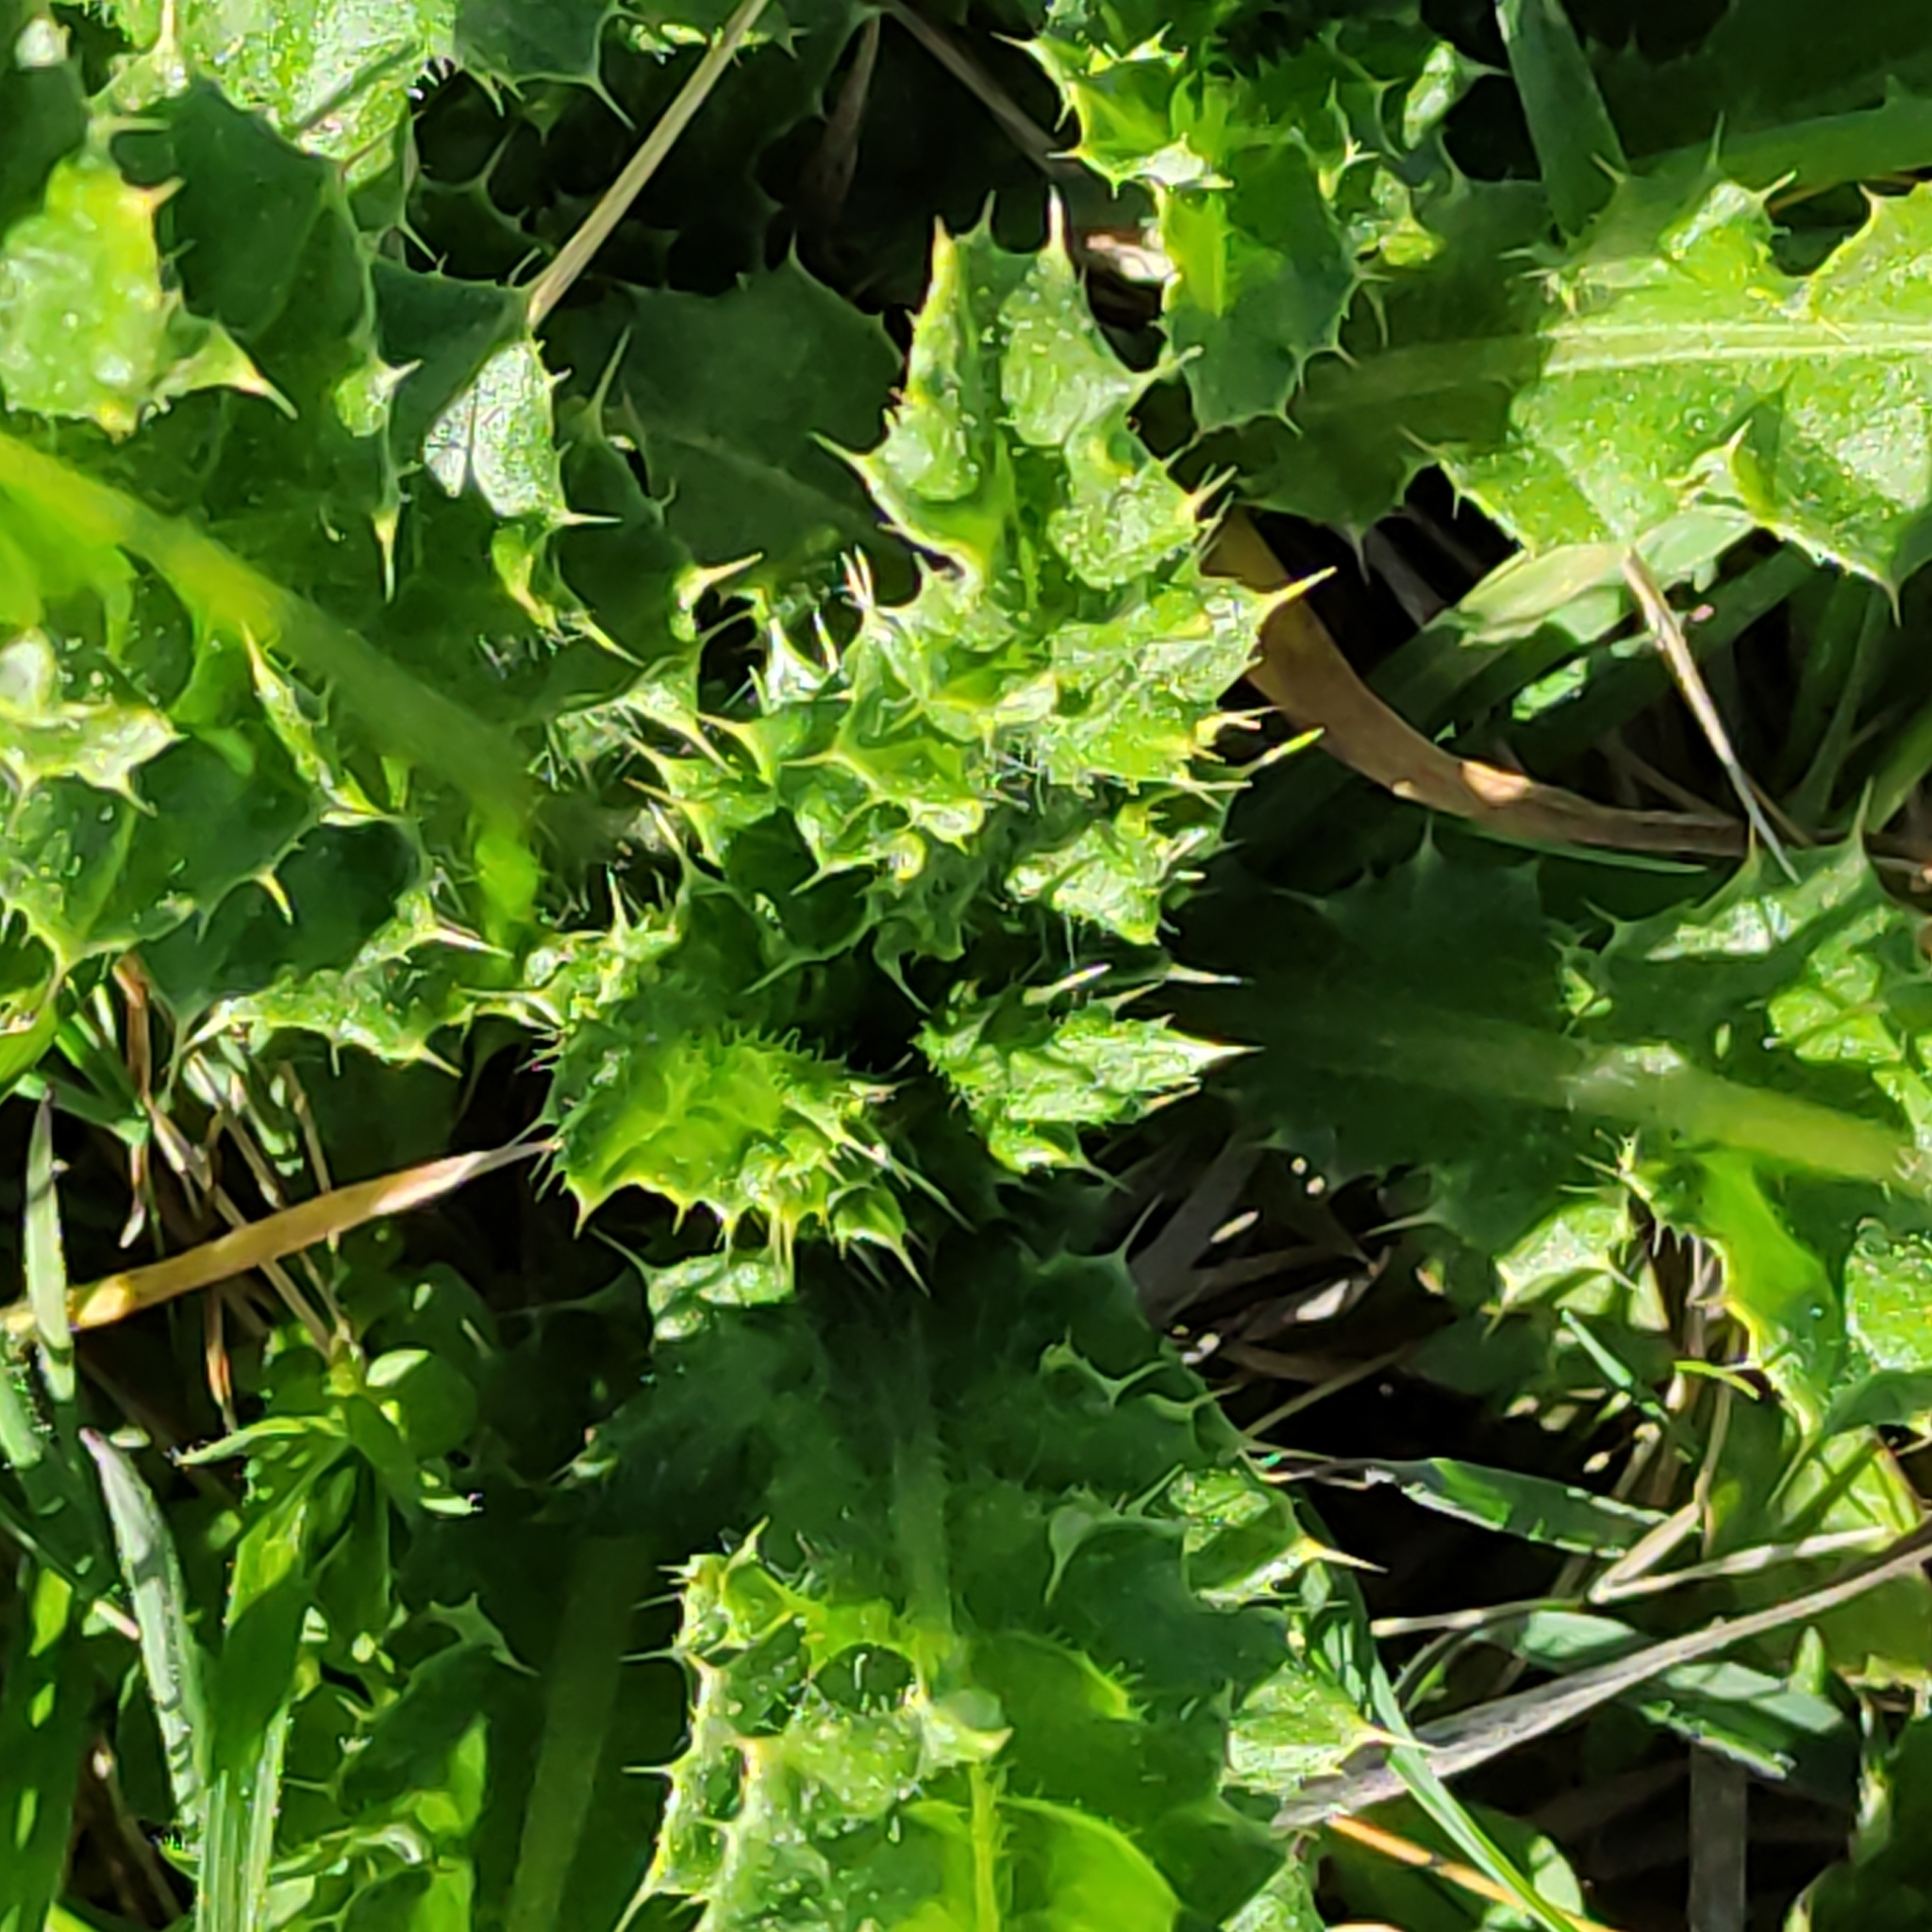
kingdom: Plantae
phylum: Tracheophyta
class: Magnoliopsida
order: Asterales
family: Asteraceae
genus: Cirsium
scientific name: Cirsium arvense
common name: Creeping thistle
